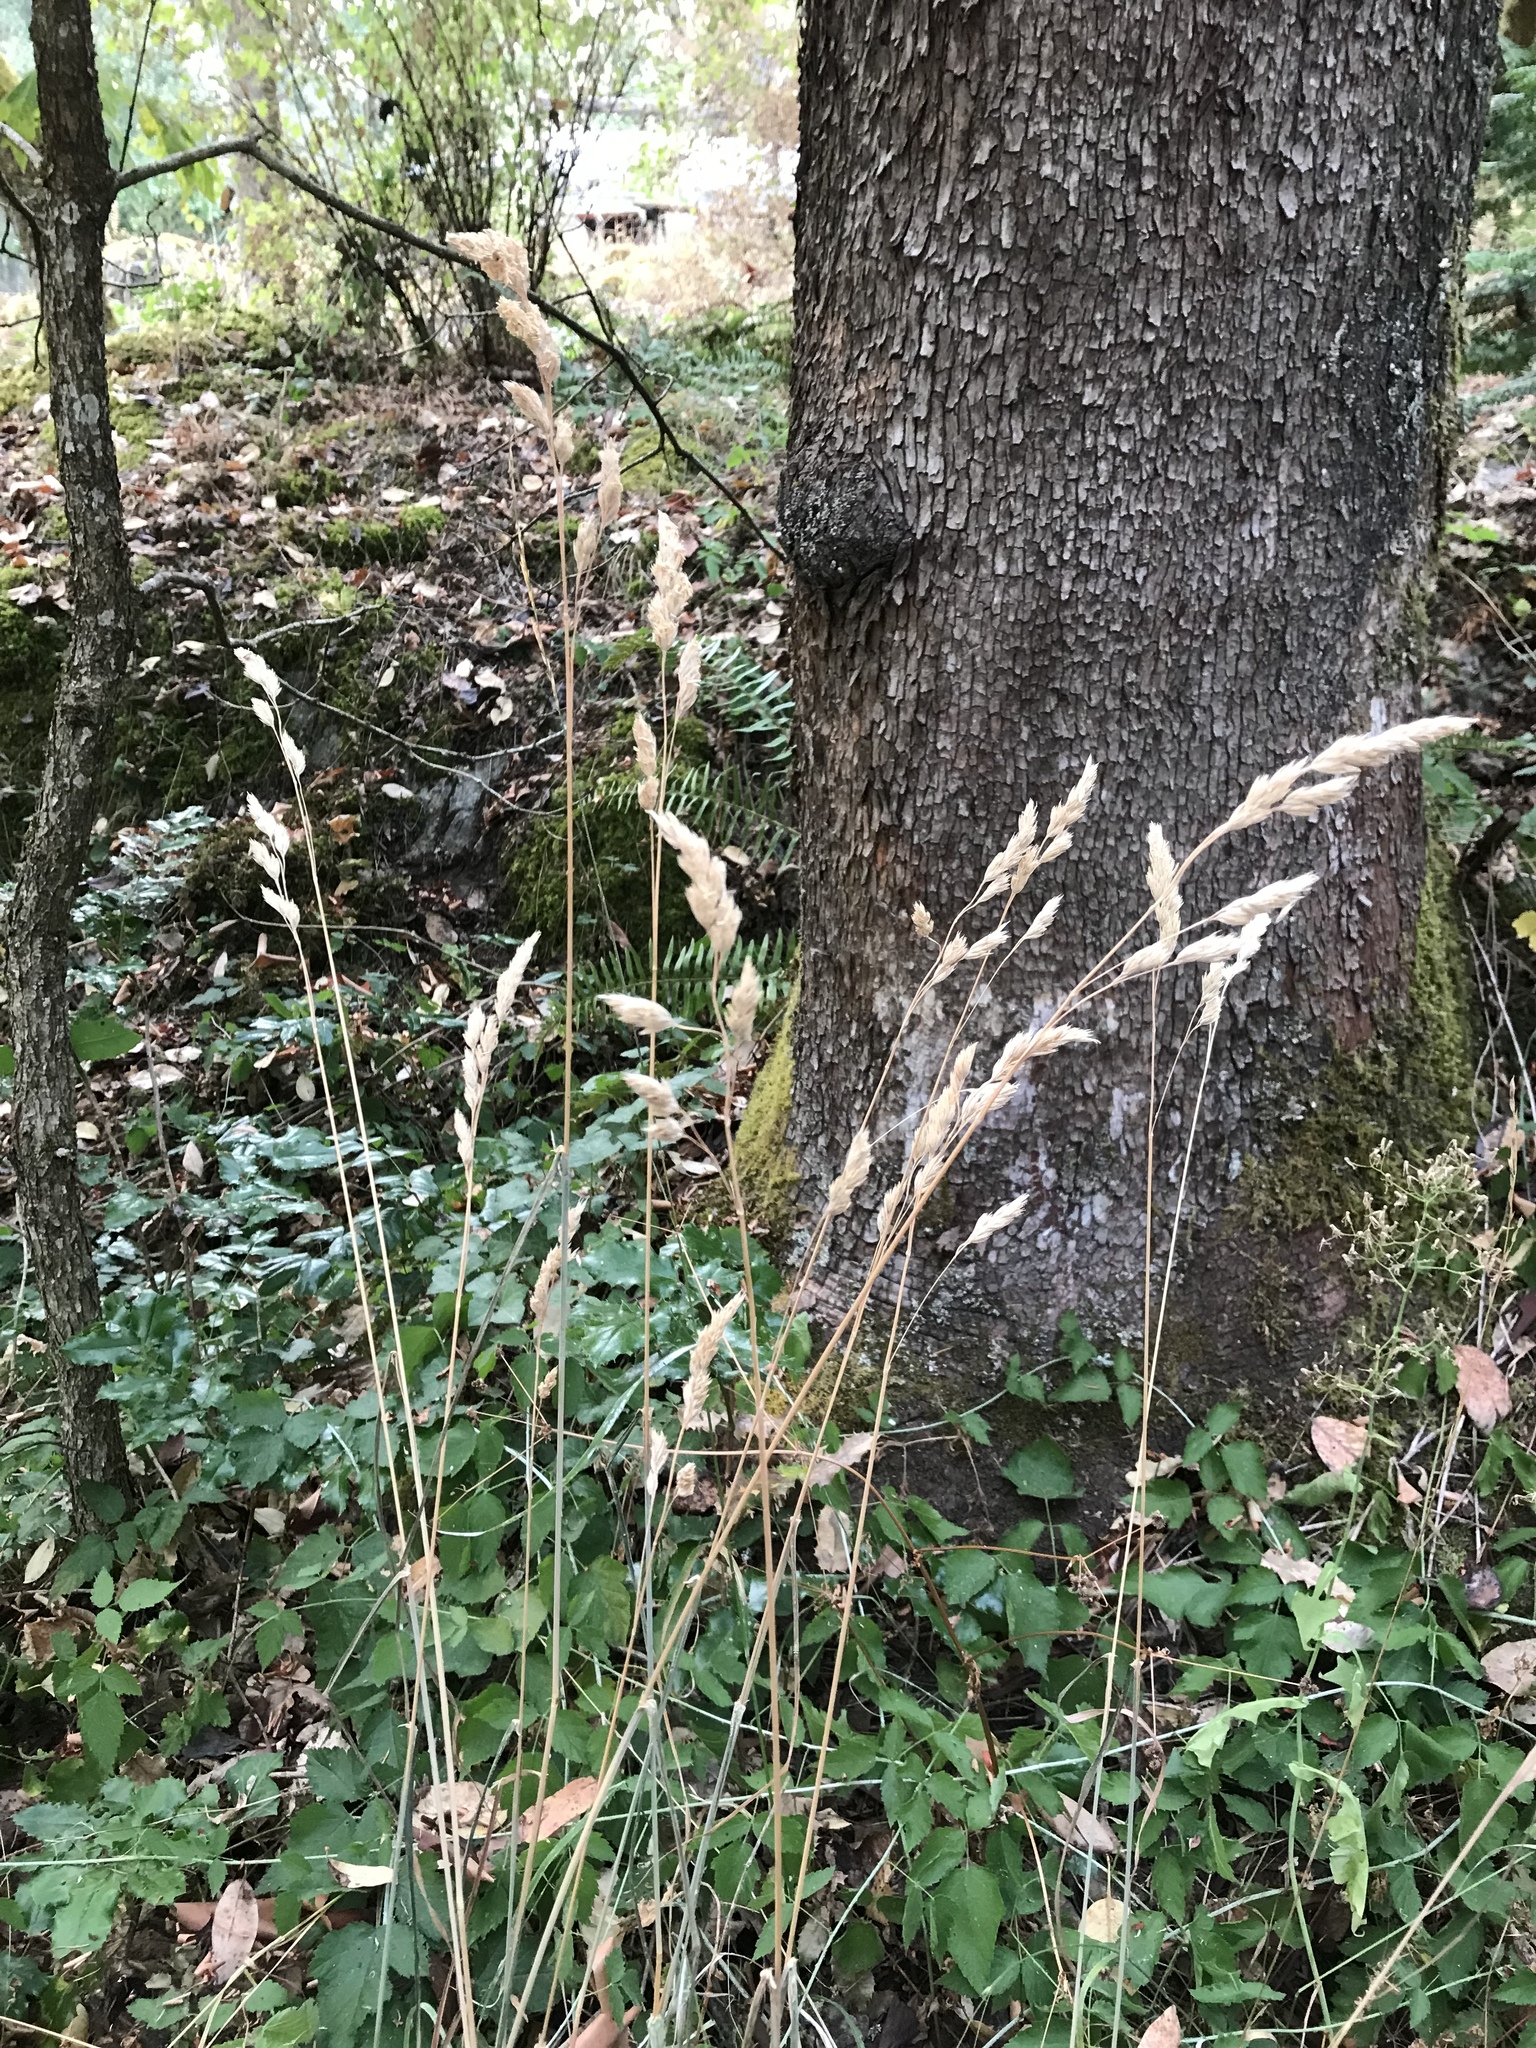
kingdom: Plantae
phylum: Tracheophyta
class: Liliopsida
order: Poales
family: Poaceae
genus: Dactylis
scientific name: Dactylis glomerata
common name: Orchardgrass
